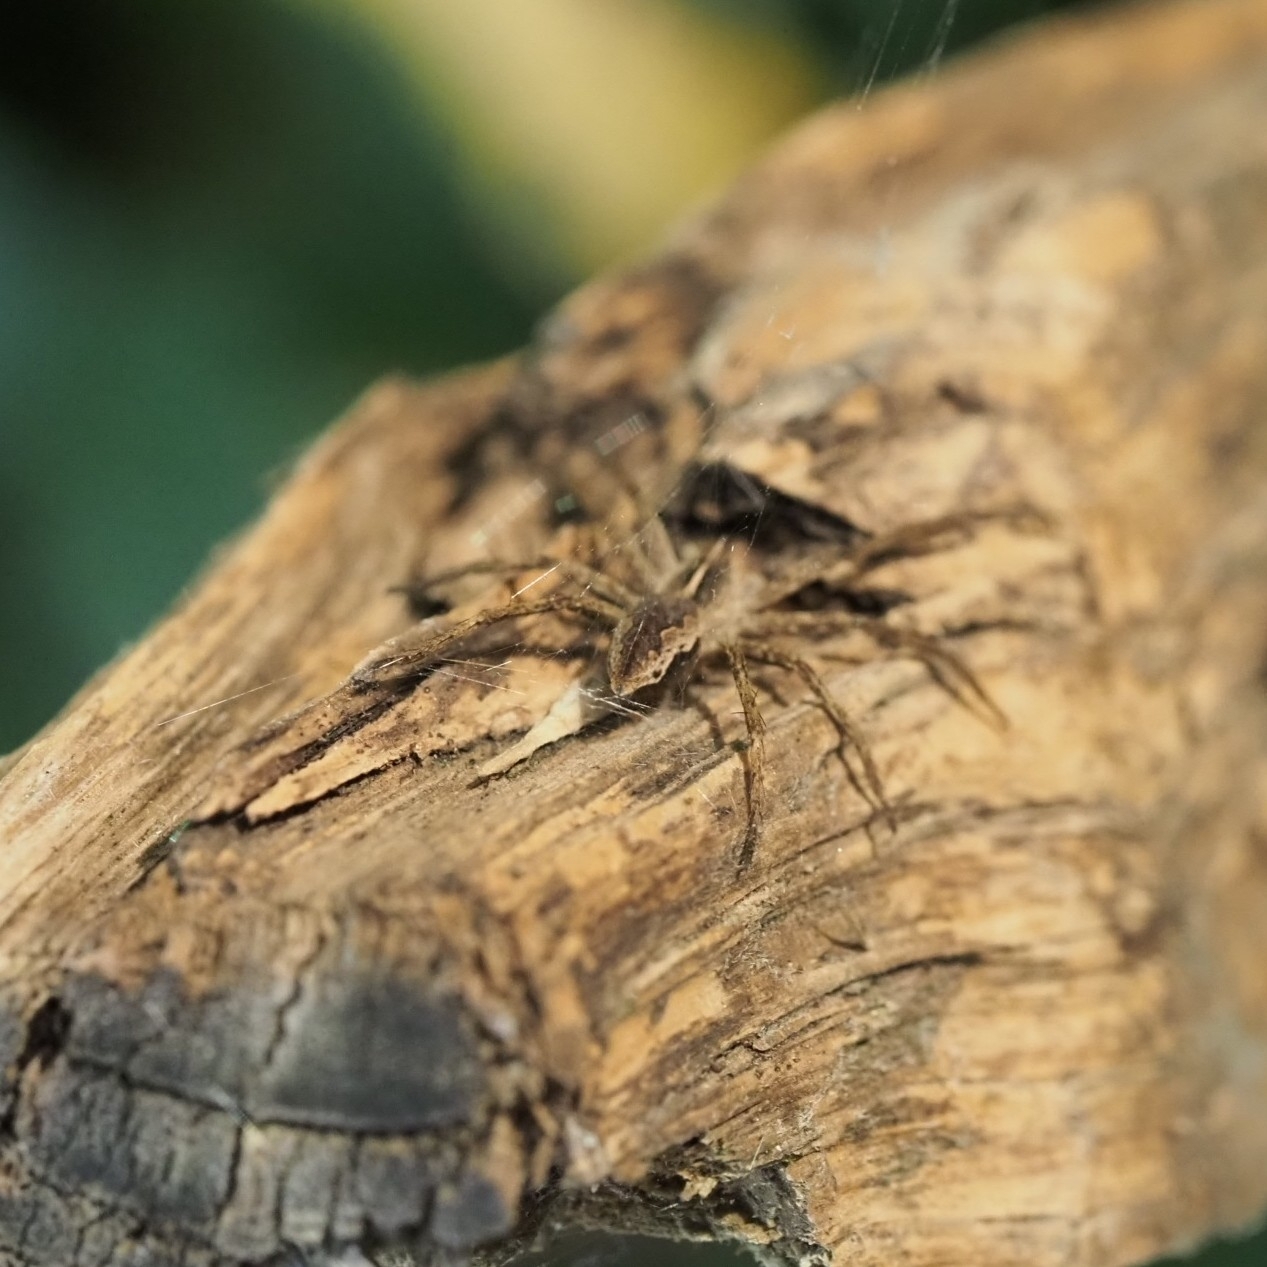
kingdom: Animalia
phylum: Arthropoda
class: Arachnida
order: Araneae
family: Pisauridae
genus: Pisaura
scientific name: Pisaura mirabilis
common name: Tent spider
